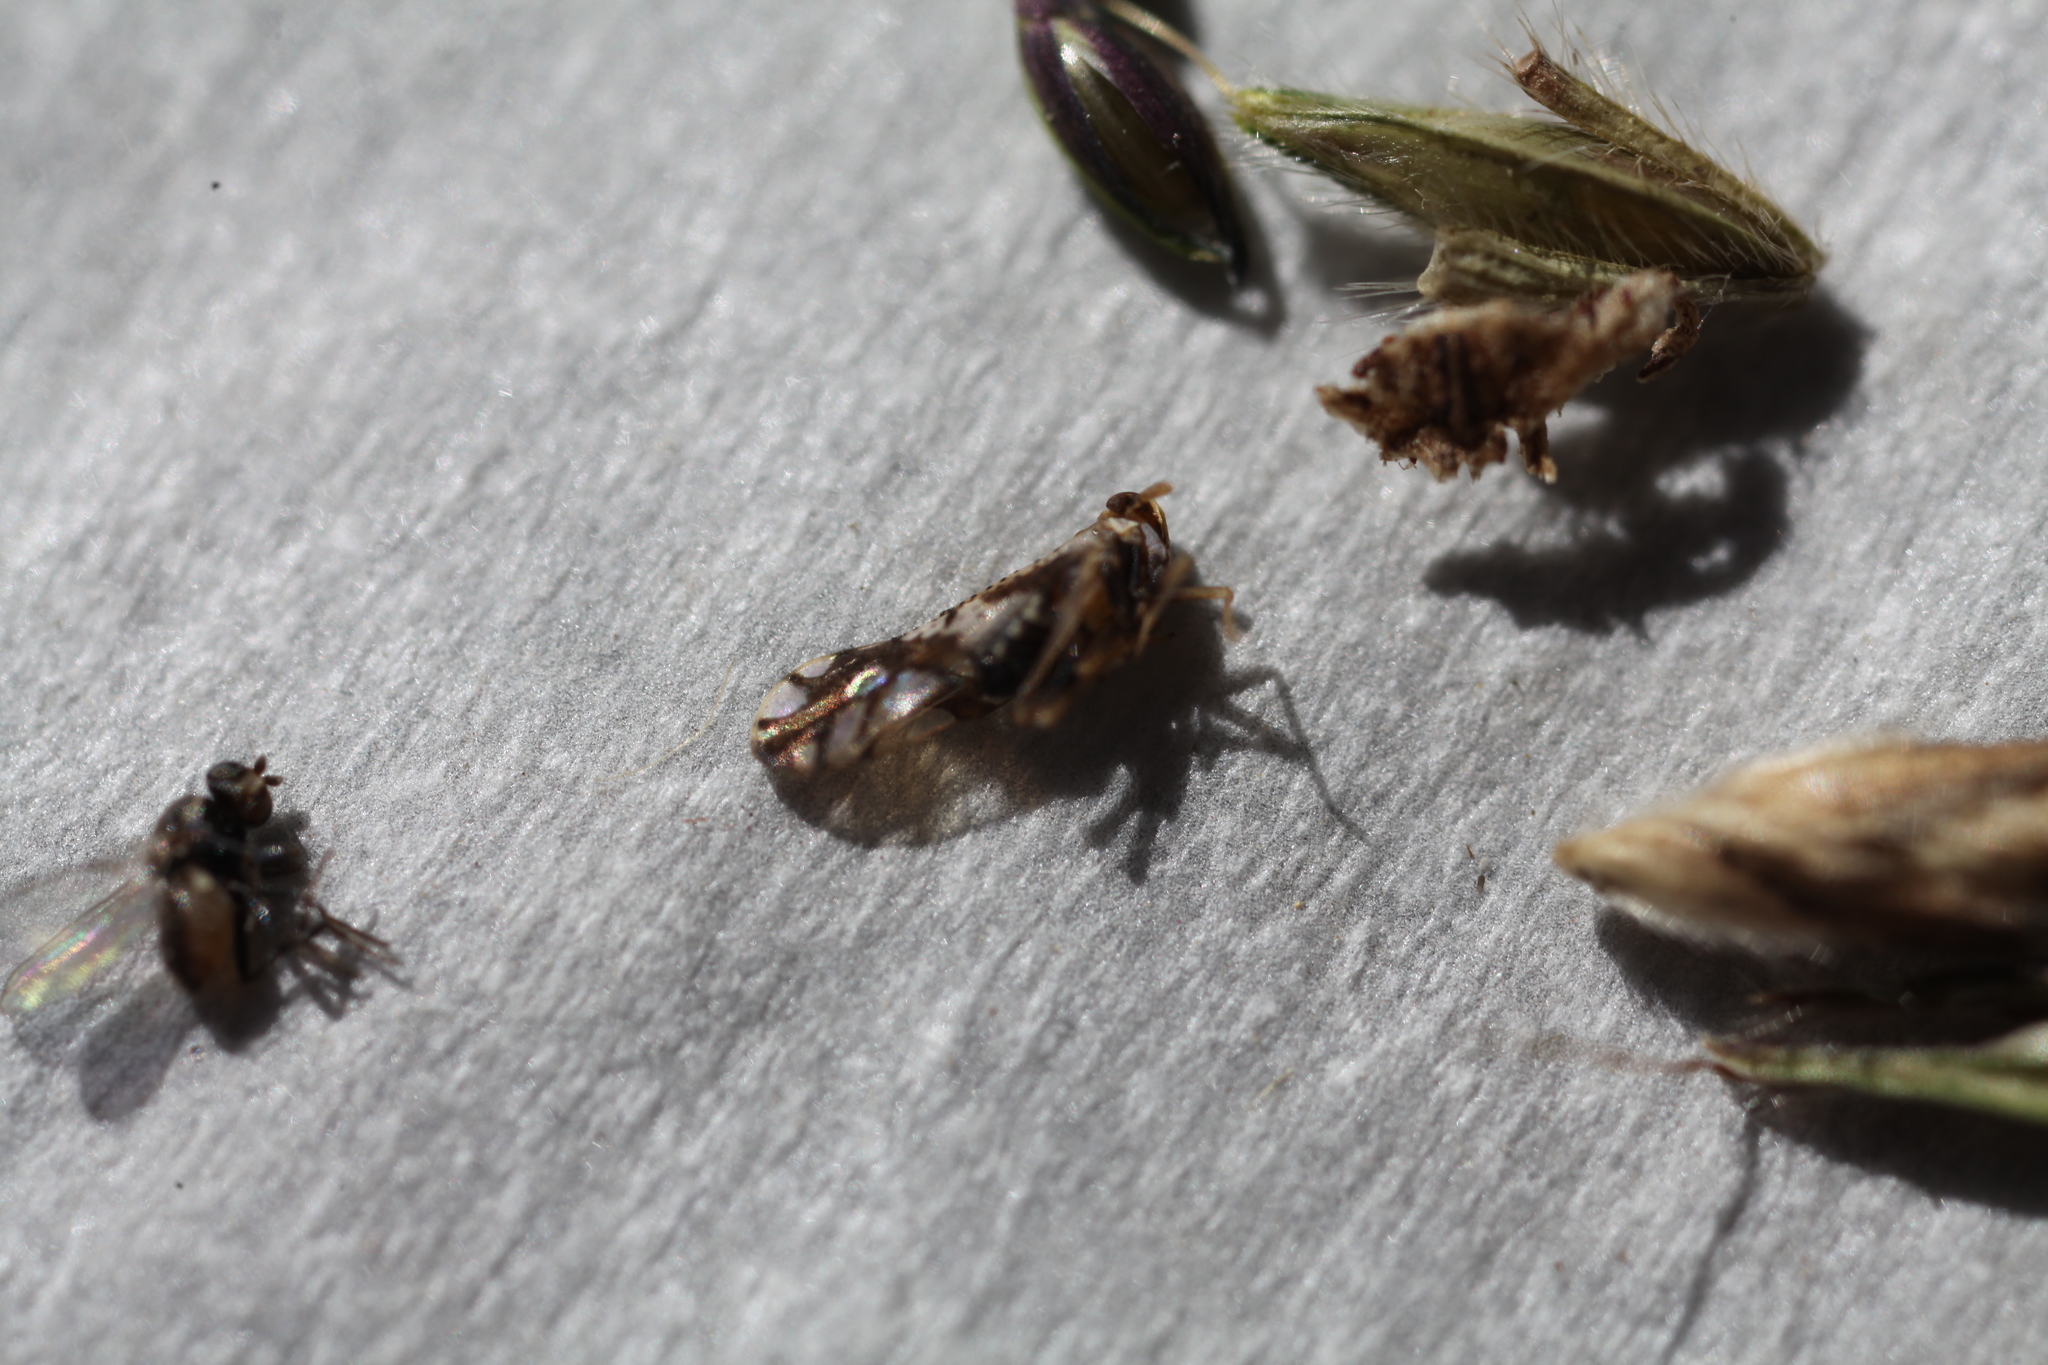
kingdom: Animalia
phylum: Arthropoda
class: Insecta
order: Hemiptera
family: Delphacidae
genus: Liburniella
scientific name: Liburniella ornata
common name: Ornate planthopper
